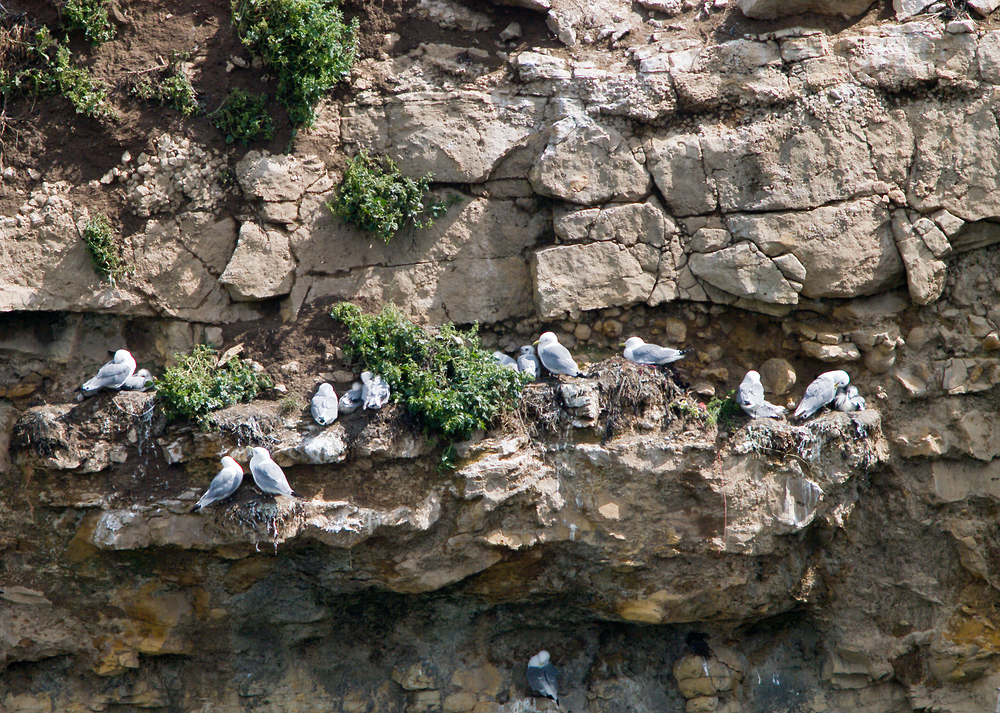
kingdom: Animalia
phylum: Chordata
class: Aves
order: Charadriiformes
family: Laridae
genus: Rissa
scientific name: Rissa tridactyla
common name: Black-legged kittiwake
